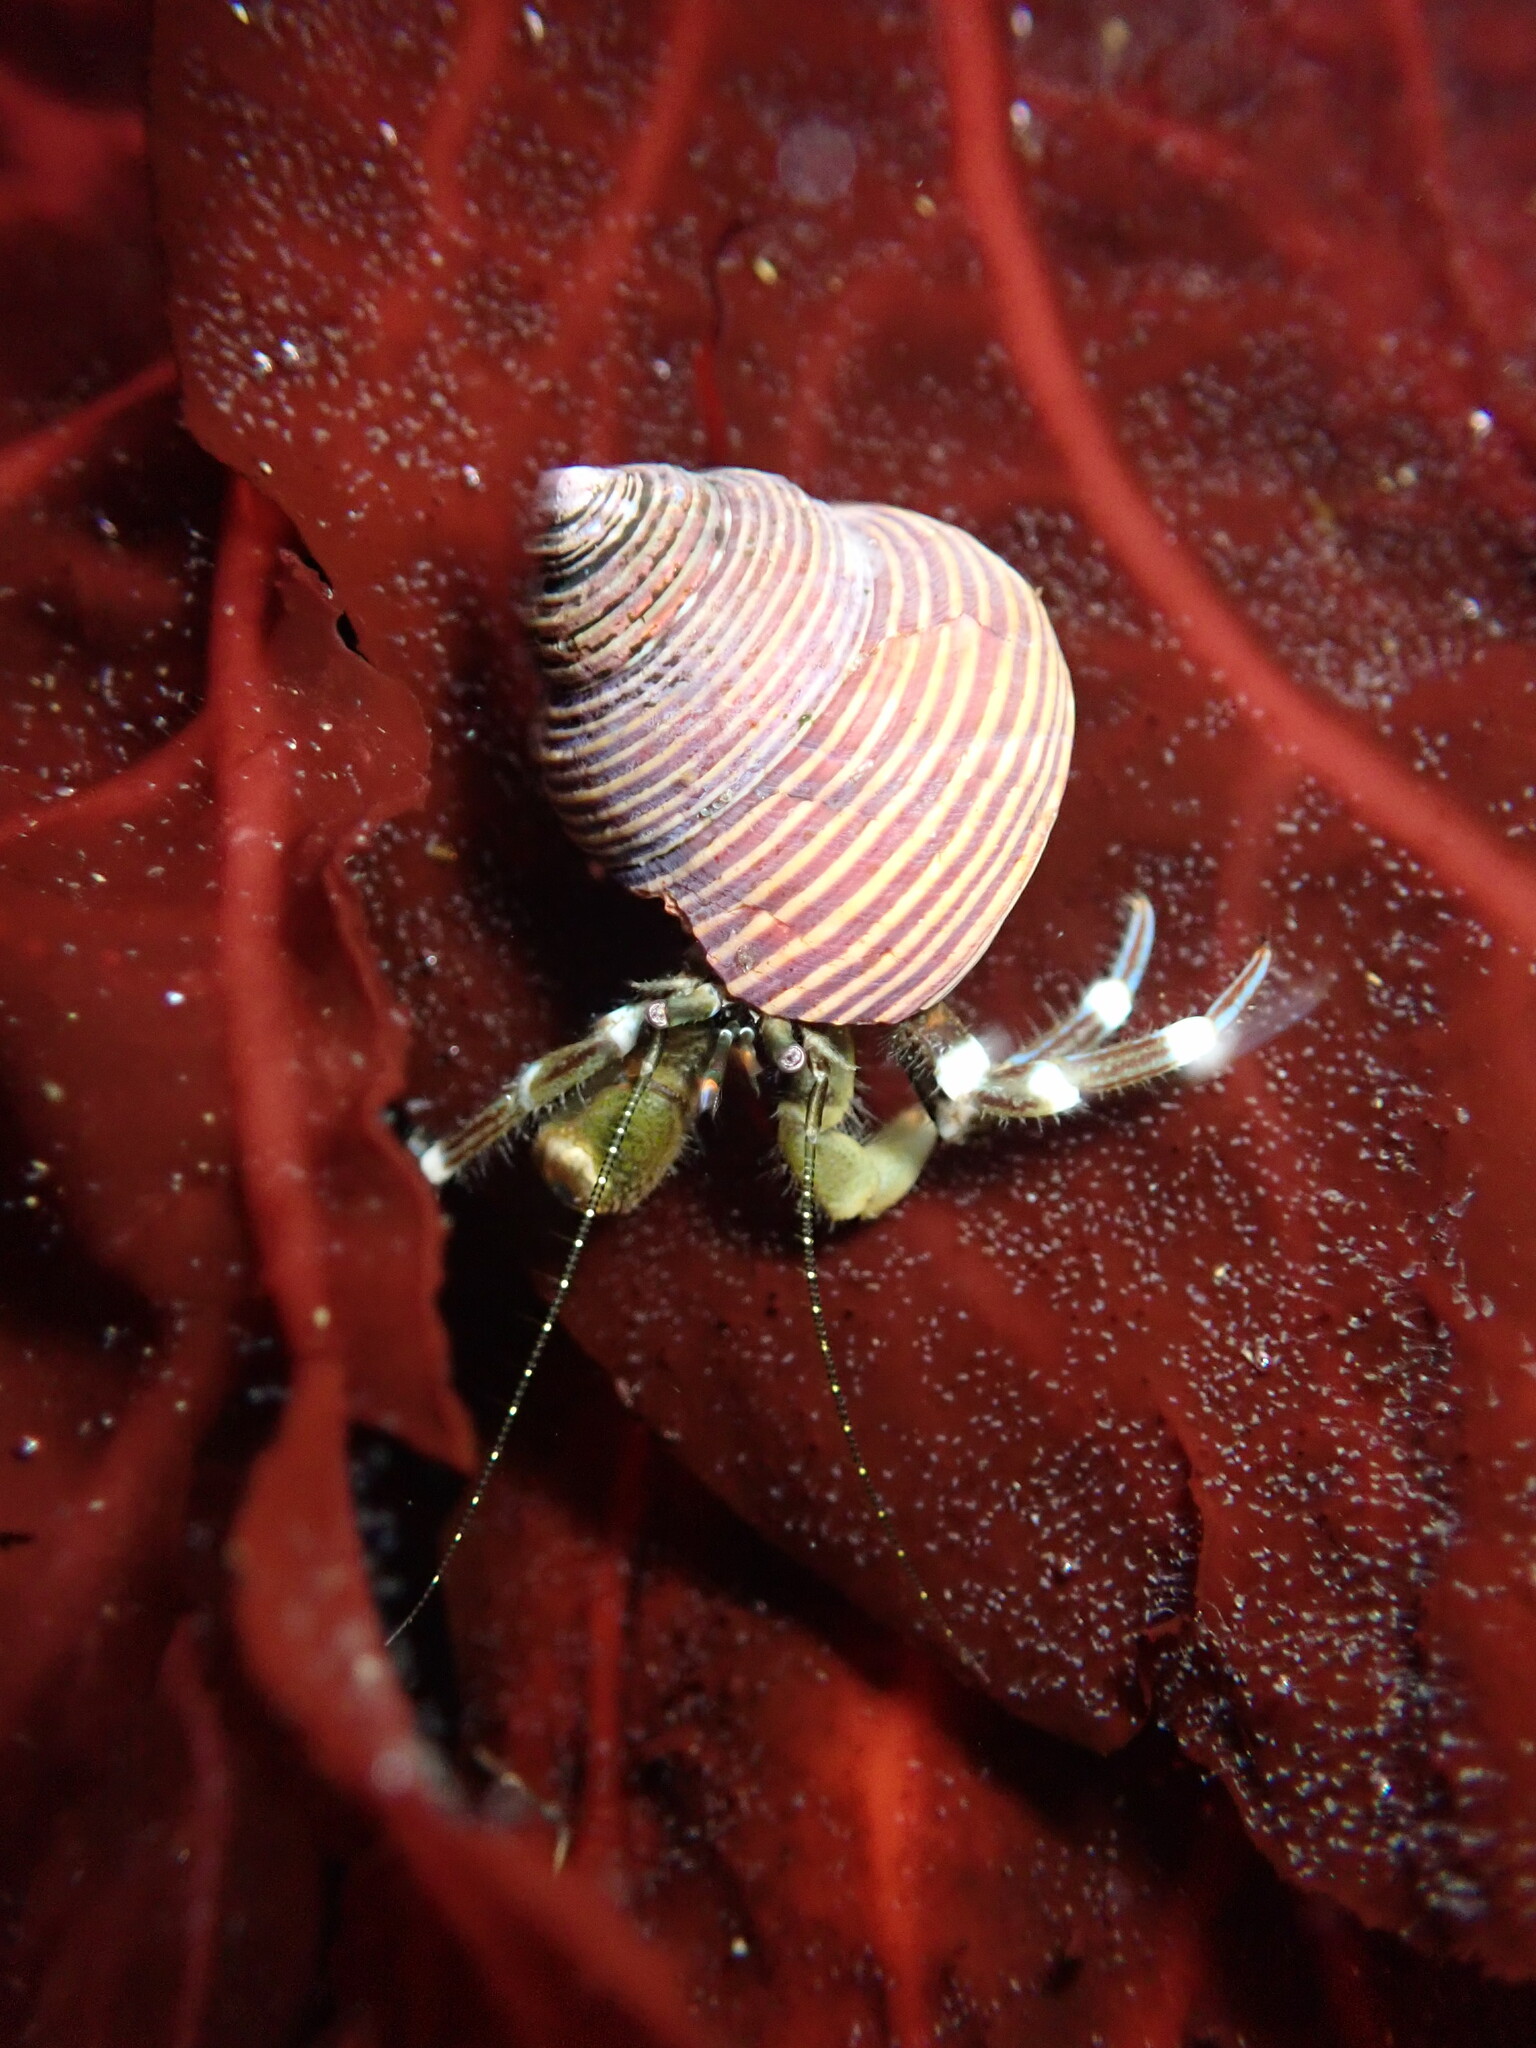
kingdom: Animalia
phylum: Arthropoda
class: Malacostraca
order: Decapoda
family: Paguridae
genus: Pagurus
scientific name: Pagurus venturensis
